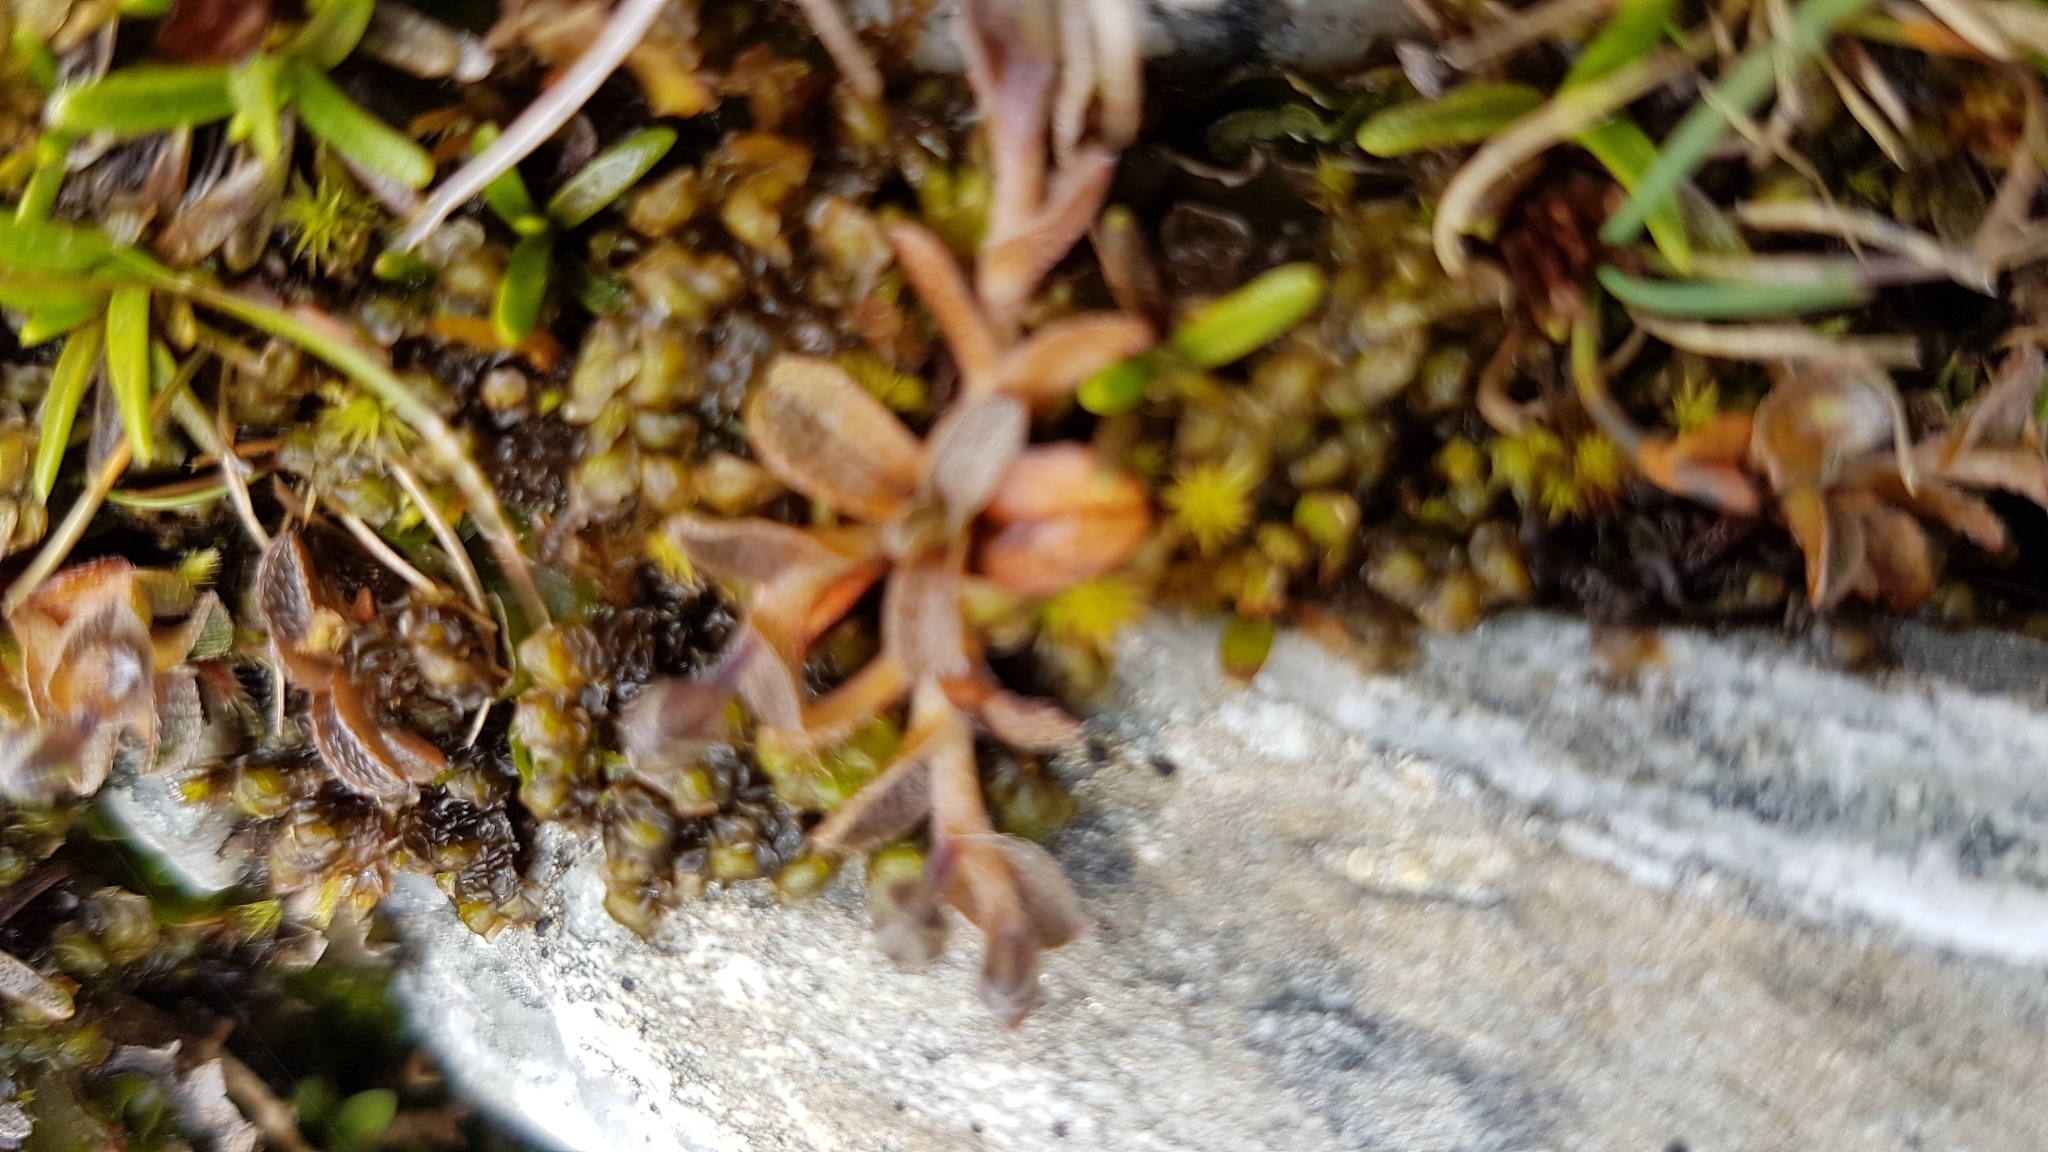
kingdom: Plantae
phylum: Tracheophyta
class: Magnoliopsida
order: Boraginales
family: Boraginaceae
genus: Myosotis
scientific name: Myosotis bryonoma
